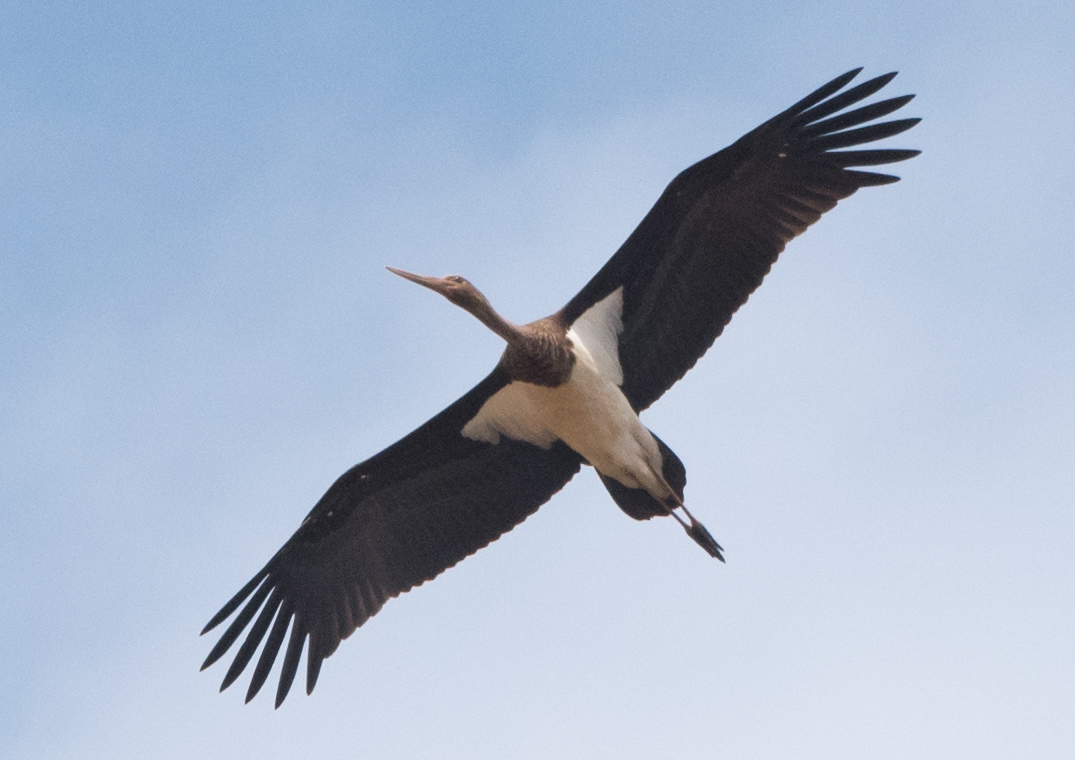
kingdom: Animalia
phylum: Chordata
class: Aves
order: Ciconiiformes
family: Ciconiidae
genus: Ciconia
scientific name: Ciconia nigra
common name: Black stork
